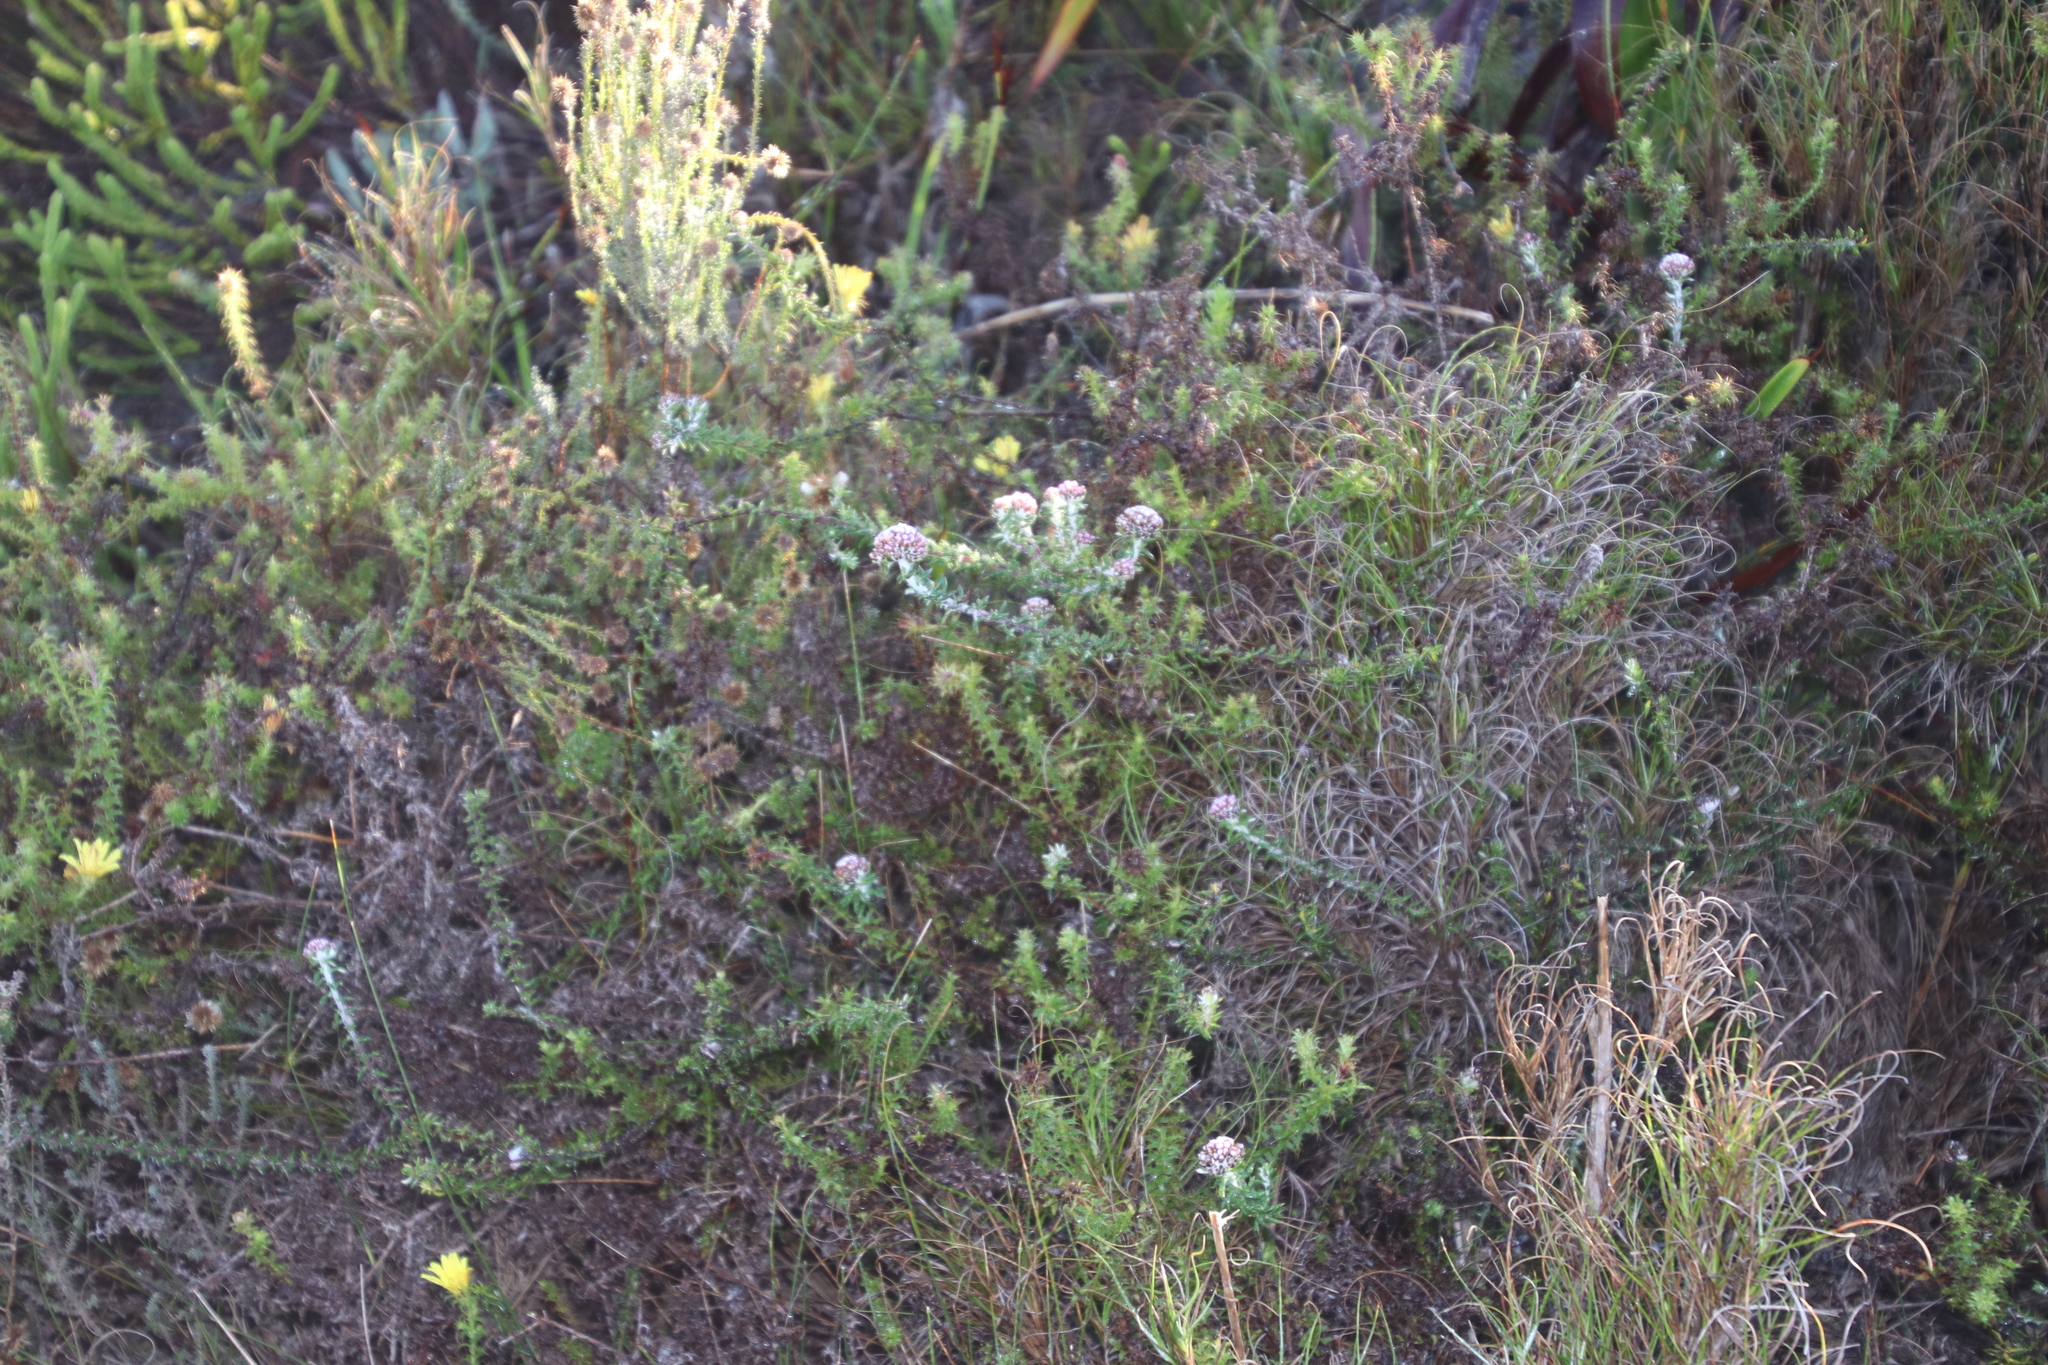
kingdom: Plantae
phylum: Tracheophyta
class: Magnoliopsida
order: Asterales
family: Asteraceae
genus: Metalasia
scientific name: Metalasia divergens
